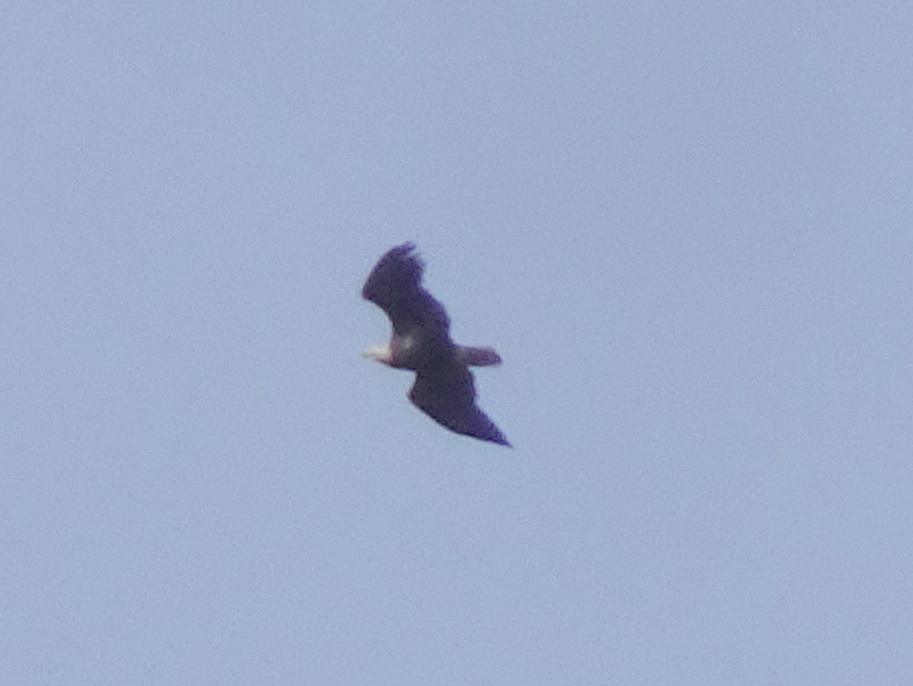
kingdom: Animalia
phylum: Chordata
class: Aves
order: Accipitriformes
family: Accipitridae
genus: Haliaeetus
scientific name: Haliaeetus leucocephalus
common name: Bald eagle
